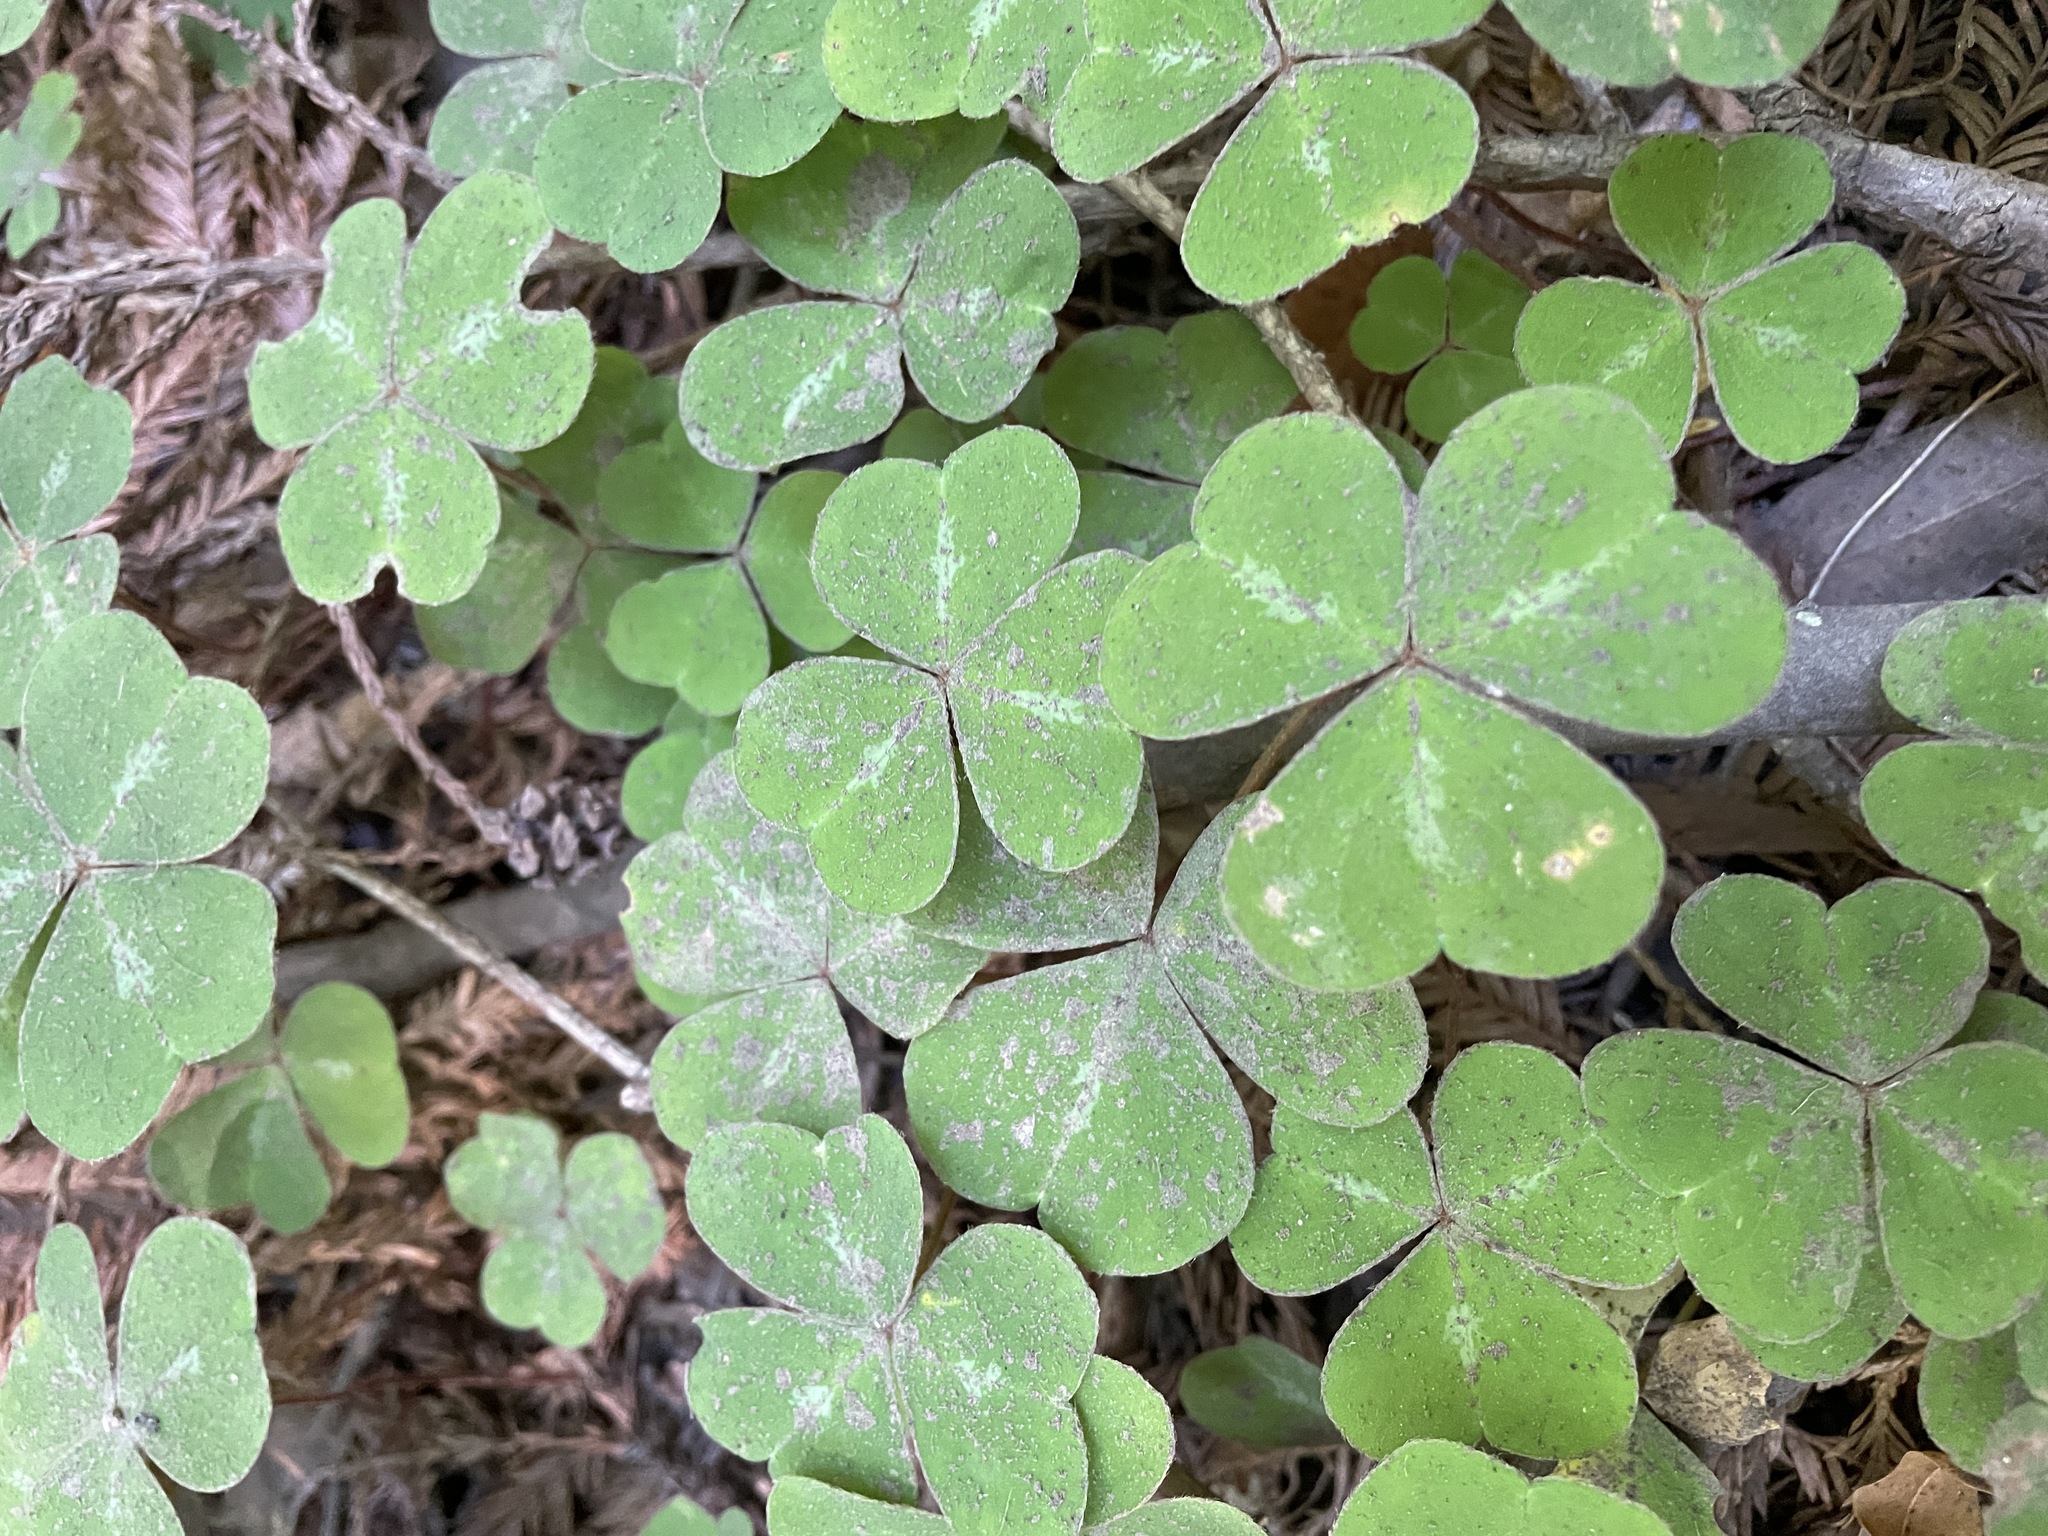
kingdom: Plantae
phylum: Tracheophyta
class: Magnoliopsida
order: Oxalidales
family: Oxalidaceae
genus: Oxalis
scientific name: Oxalis oregana
